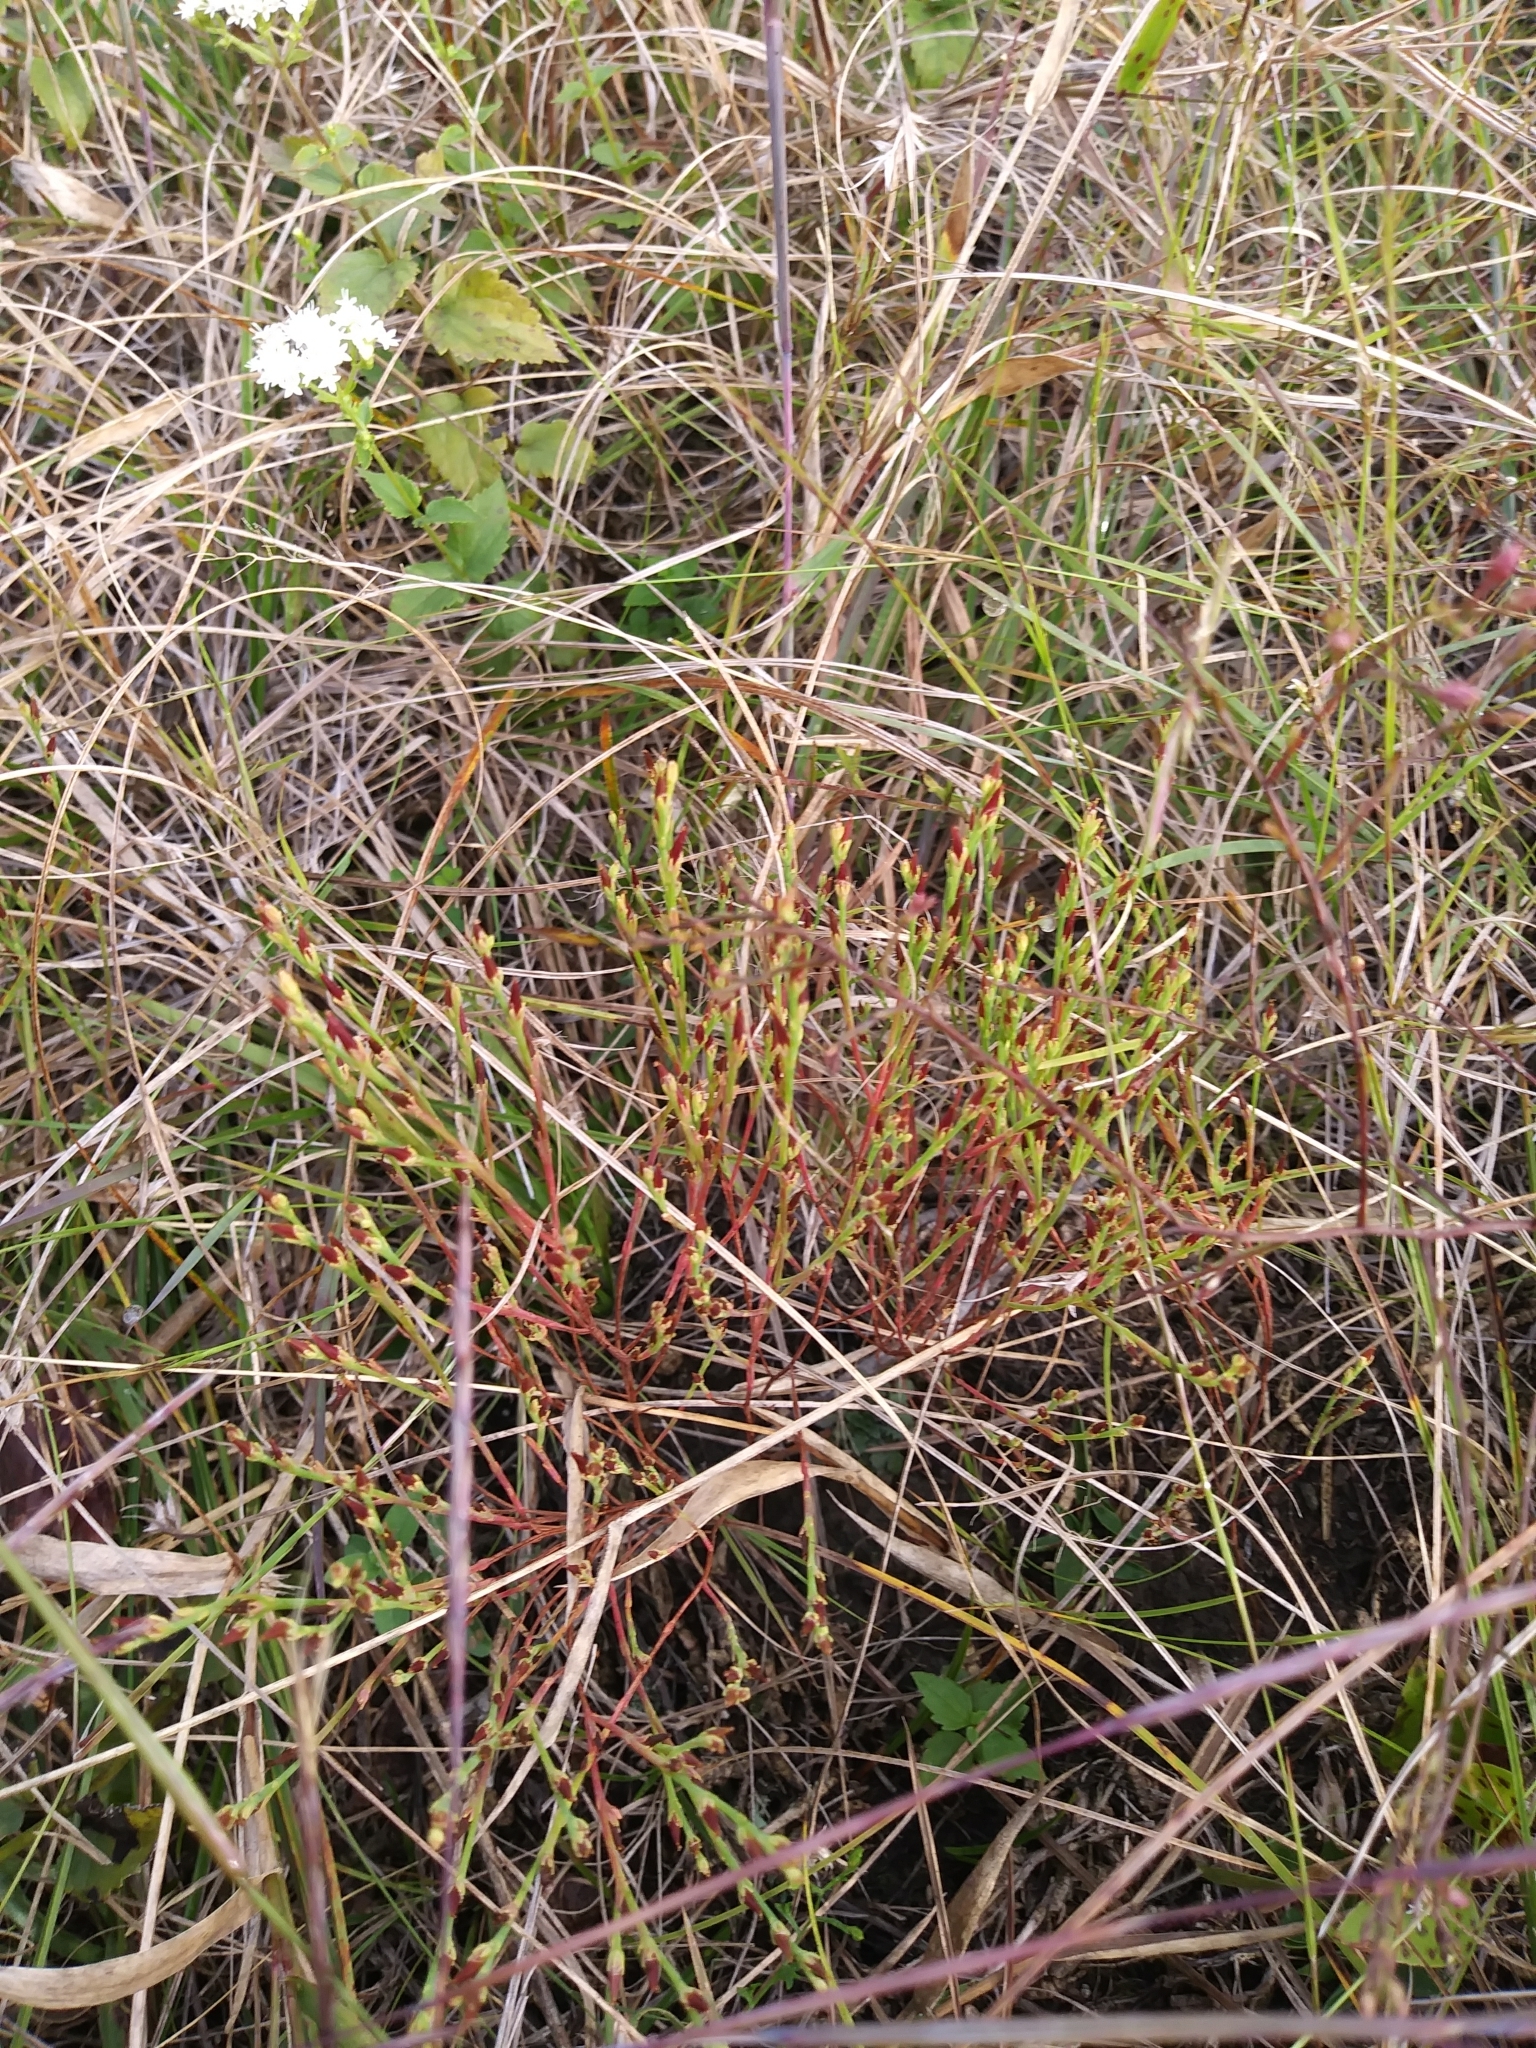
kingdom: Plantae
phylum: Tracheophyta
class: Magnoliopsida
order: Malpighiales
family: Hypericaceae
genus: Hypericum
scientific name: Hypericum gentianoides
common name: Gentian-leaved st. john's-wort
